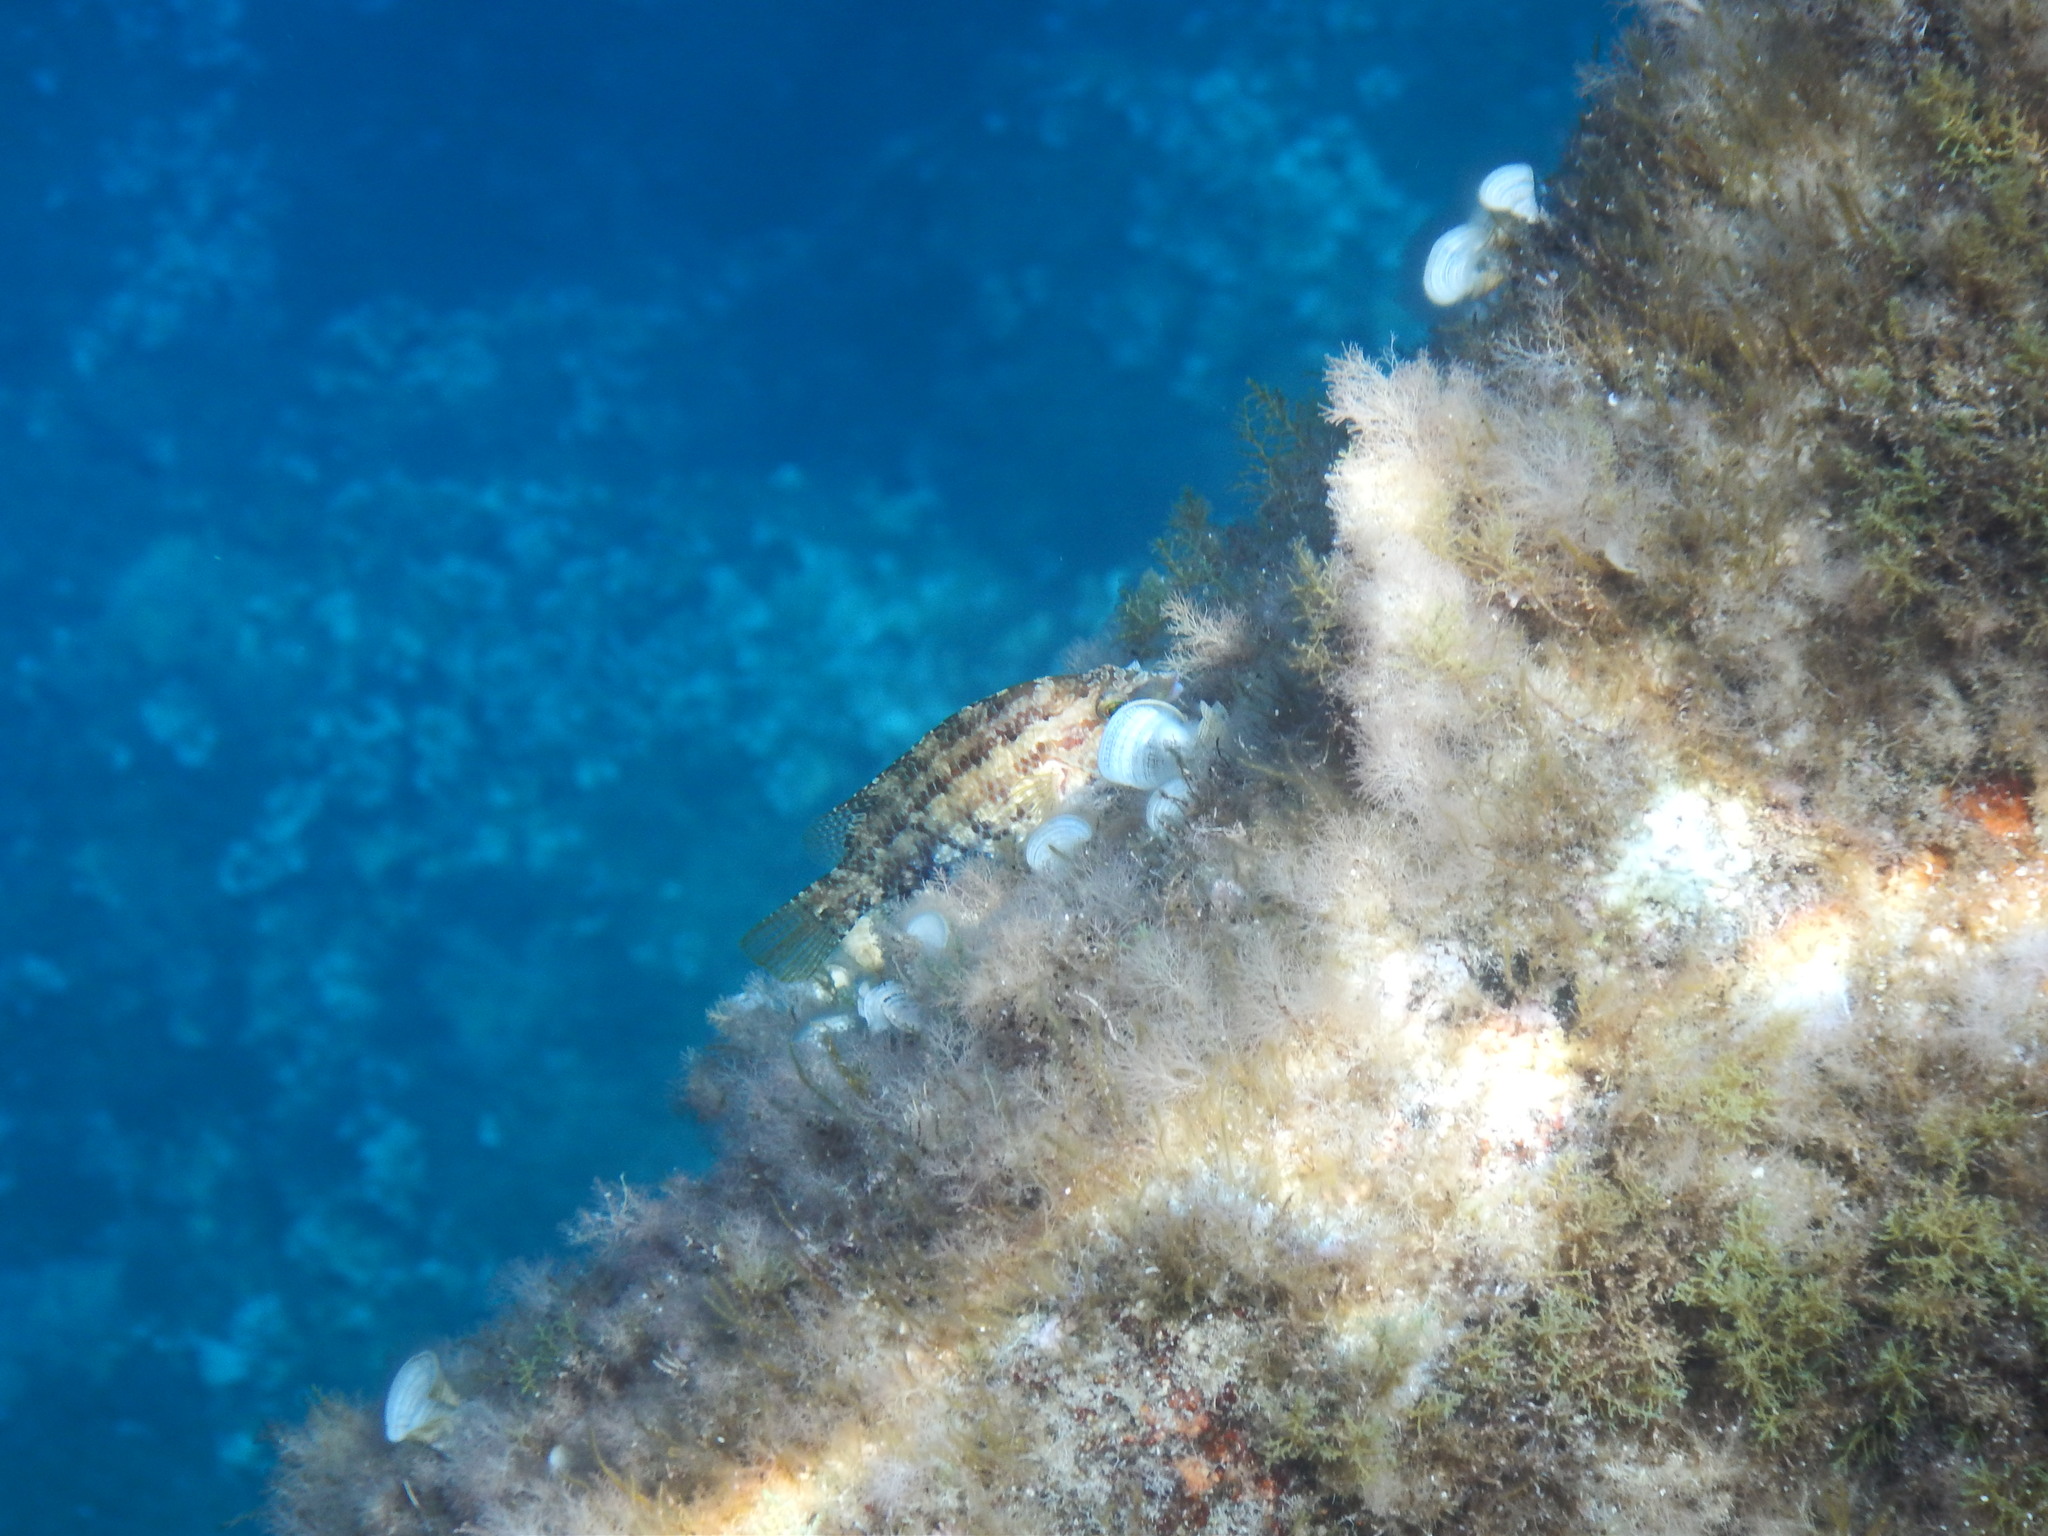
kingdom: Animalia
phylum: Chordata
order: Perciformes
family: Labridae
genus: Symphodus
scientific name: Symphodus roissali
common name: Five-spotted wrasse
